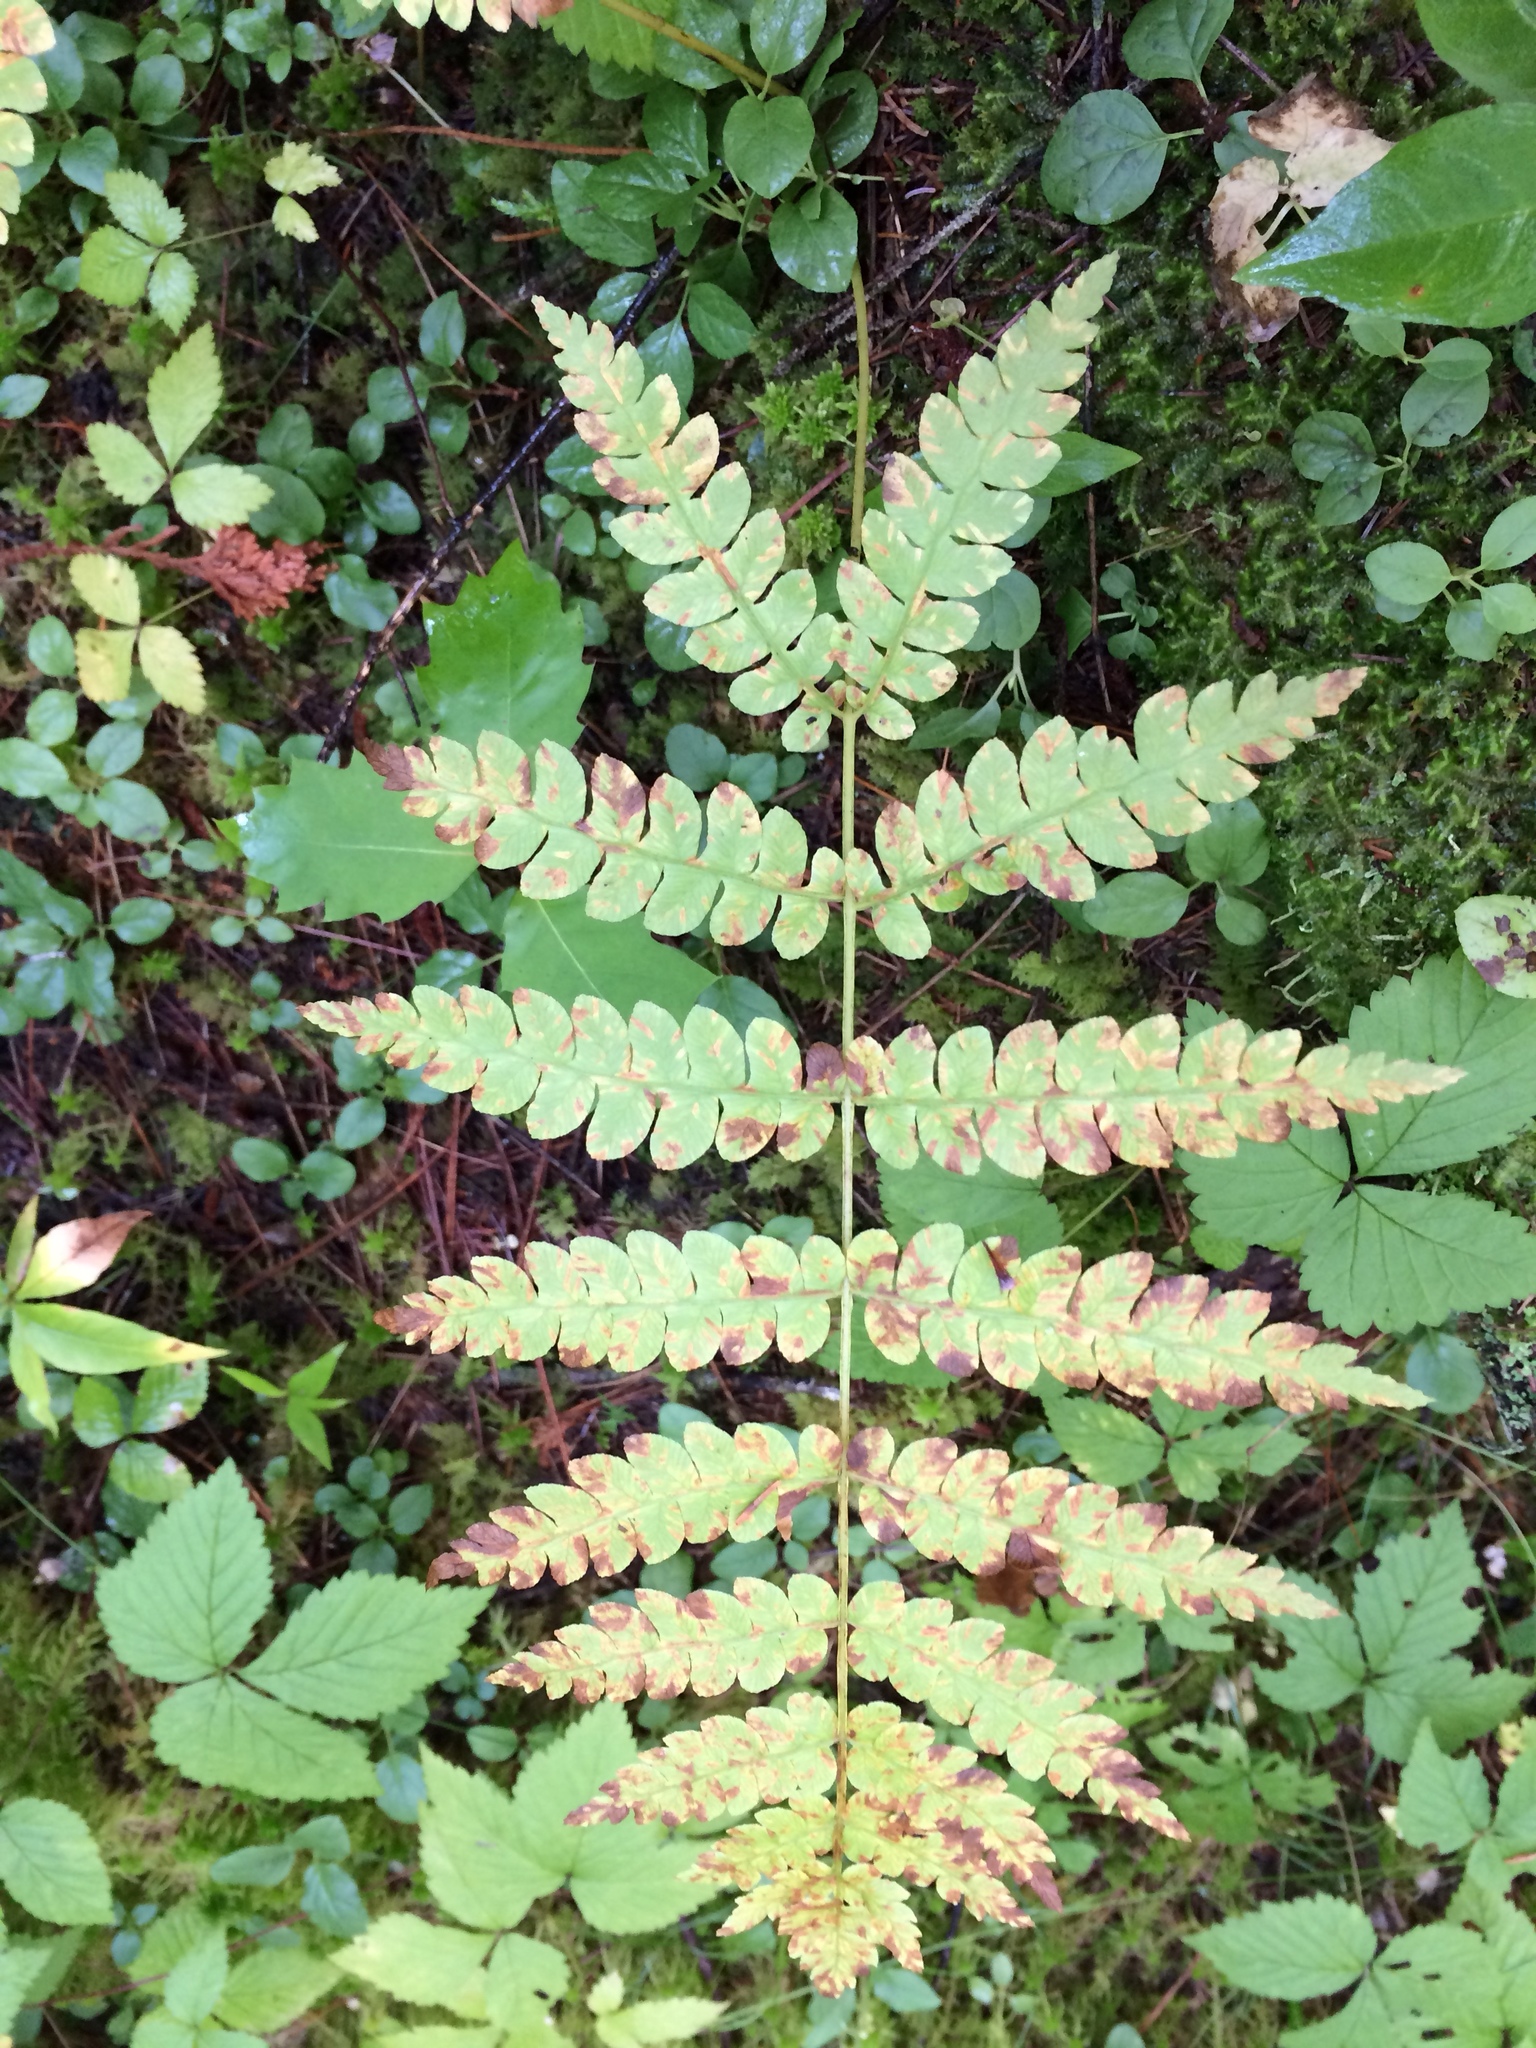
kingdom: Plantae
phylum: Tracheophyta
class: Polypodiopsida
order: Osmundales
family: Osmundaceae
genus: Osmundastrum
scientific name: Osmundastrum cinnamomeum
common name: Cinnamon fern
